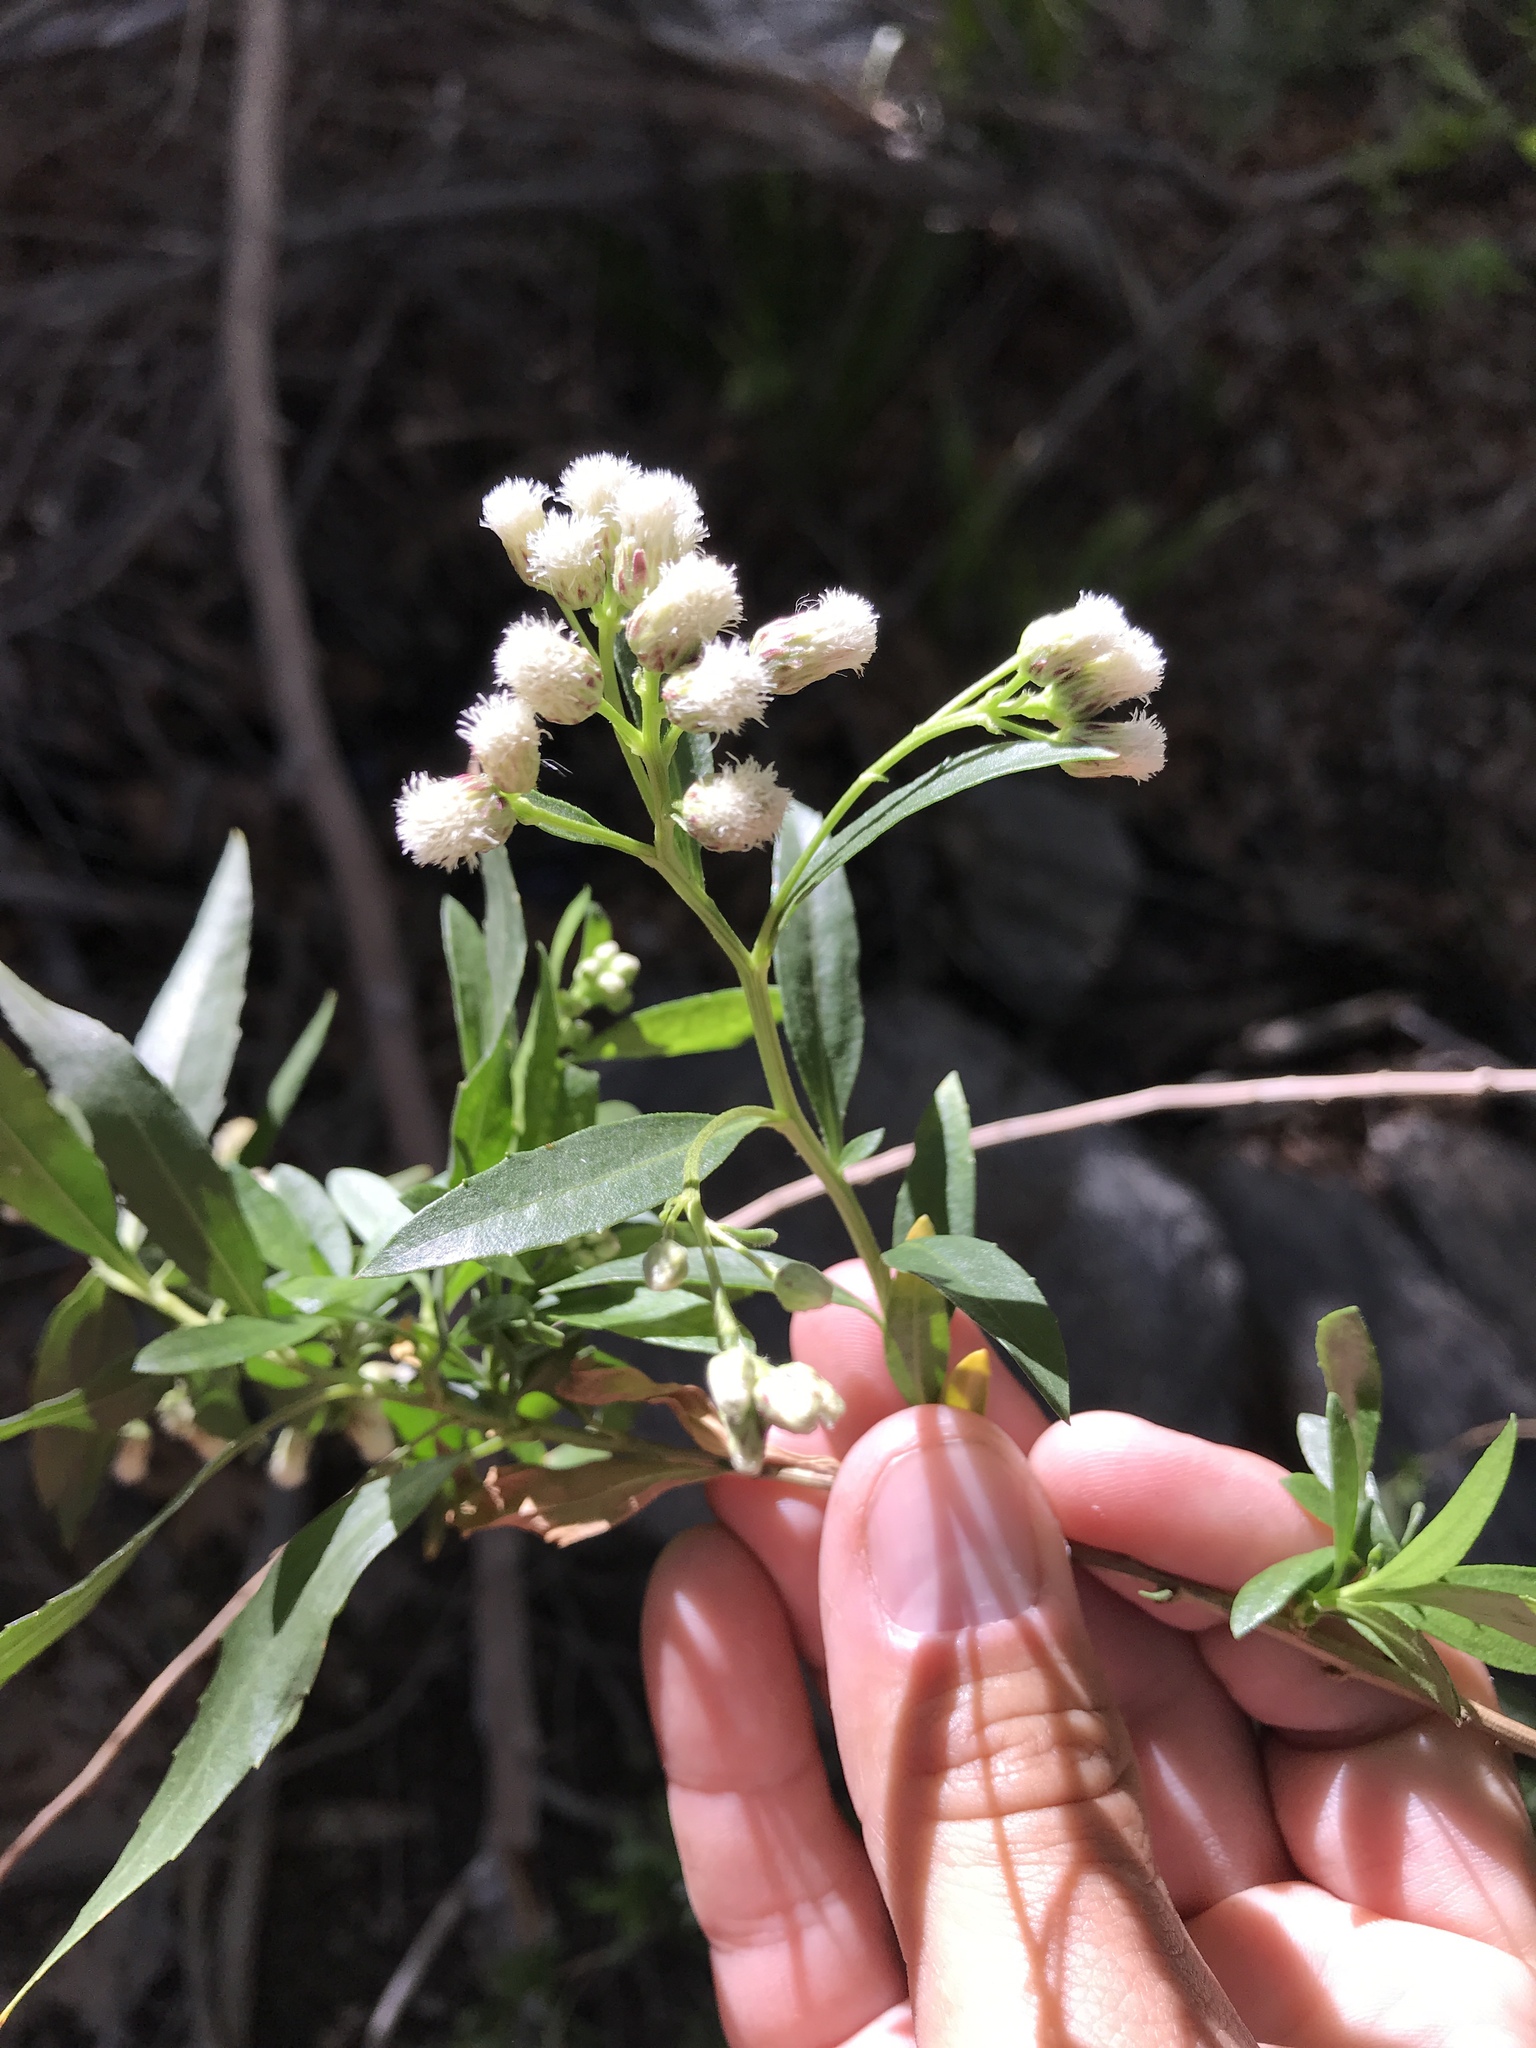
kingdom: Plantae
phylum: Tracheophyta
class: Magnoliopsida
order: Asterales
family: Asteraceae
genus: Baccharis
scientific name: Baccharis salicifolia
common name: Sticky baccharis
